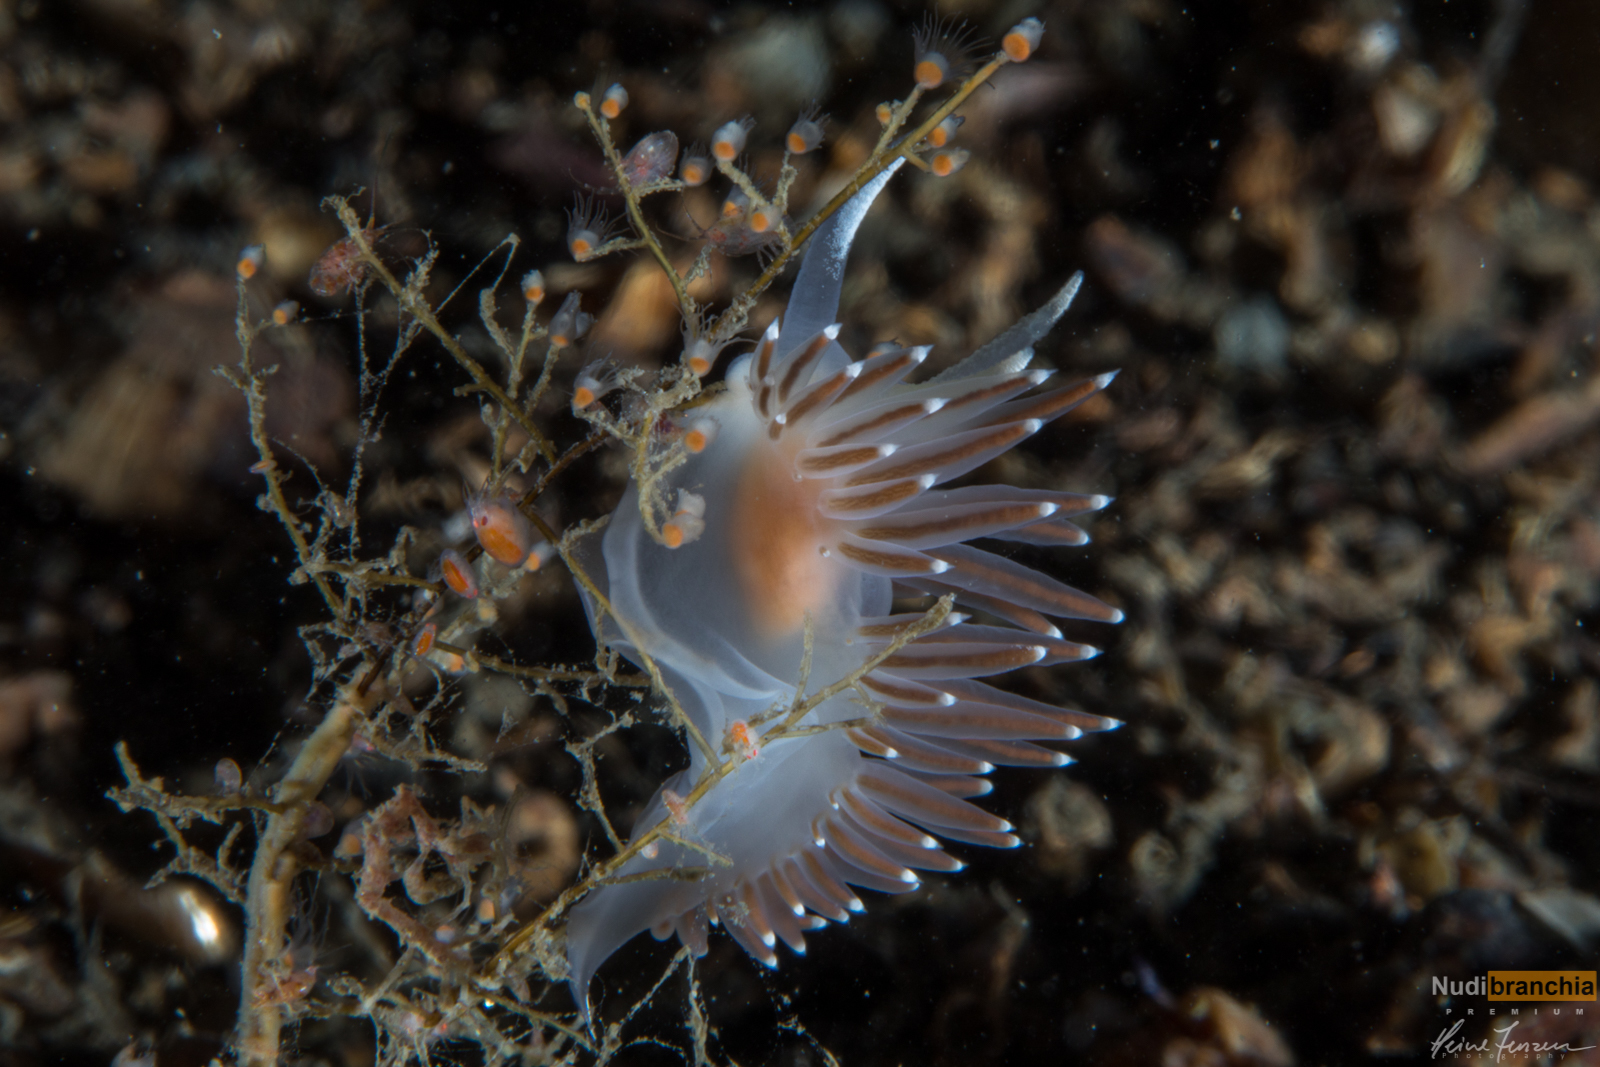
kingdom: Animalia
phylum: Mollusca
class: Gastropoda
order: Nudibranchia
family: Coryphellidae
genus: Coryphella
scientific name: Coryphella browni
